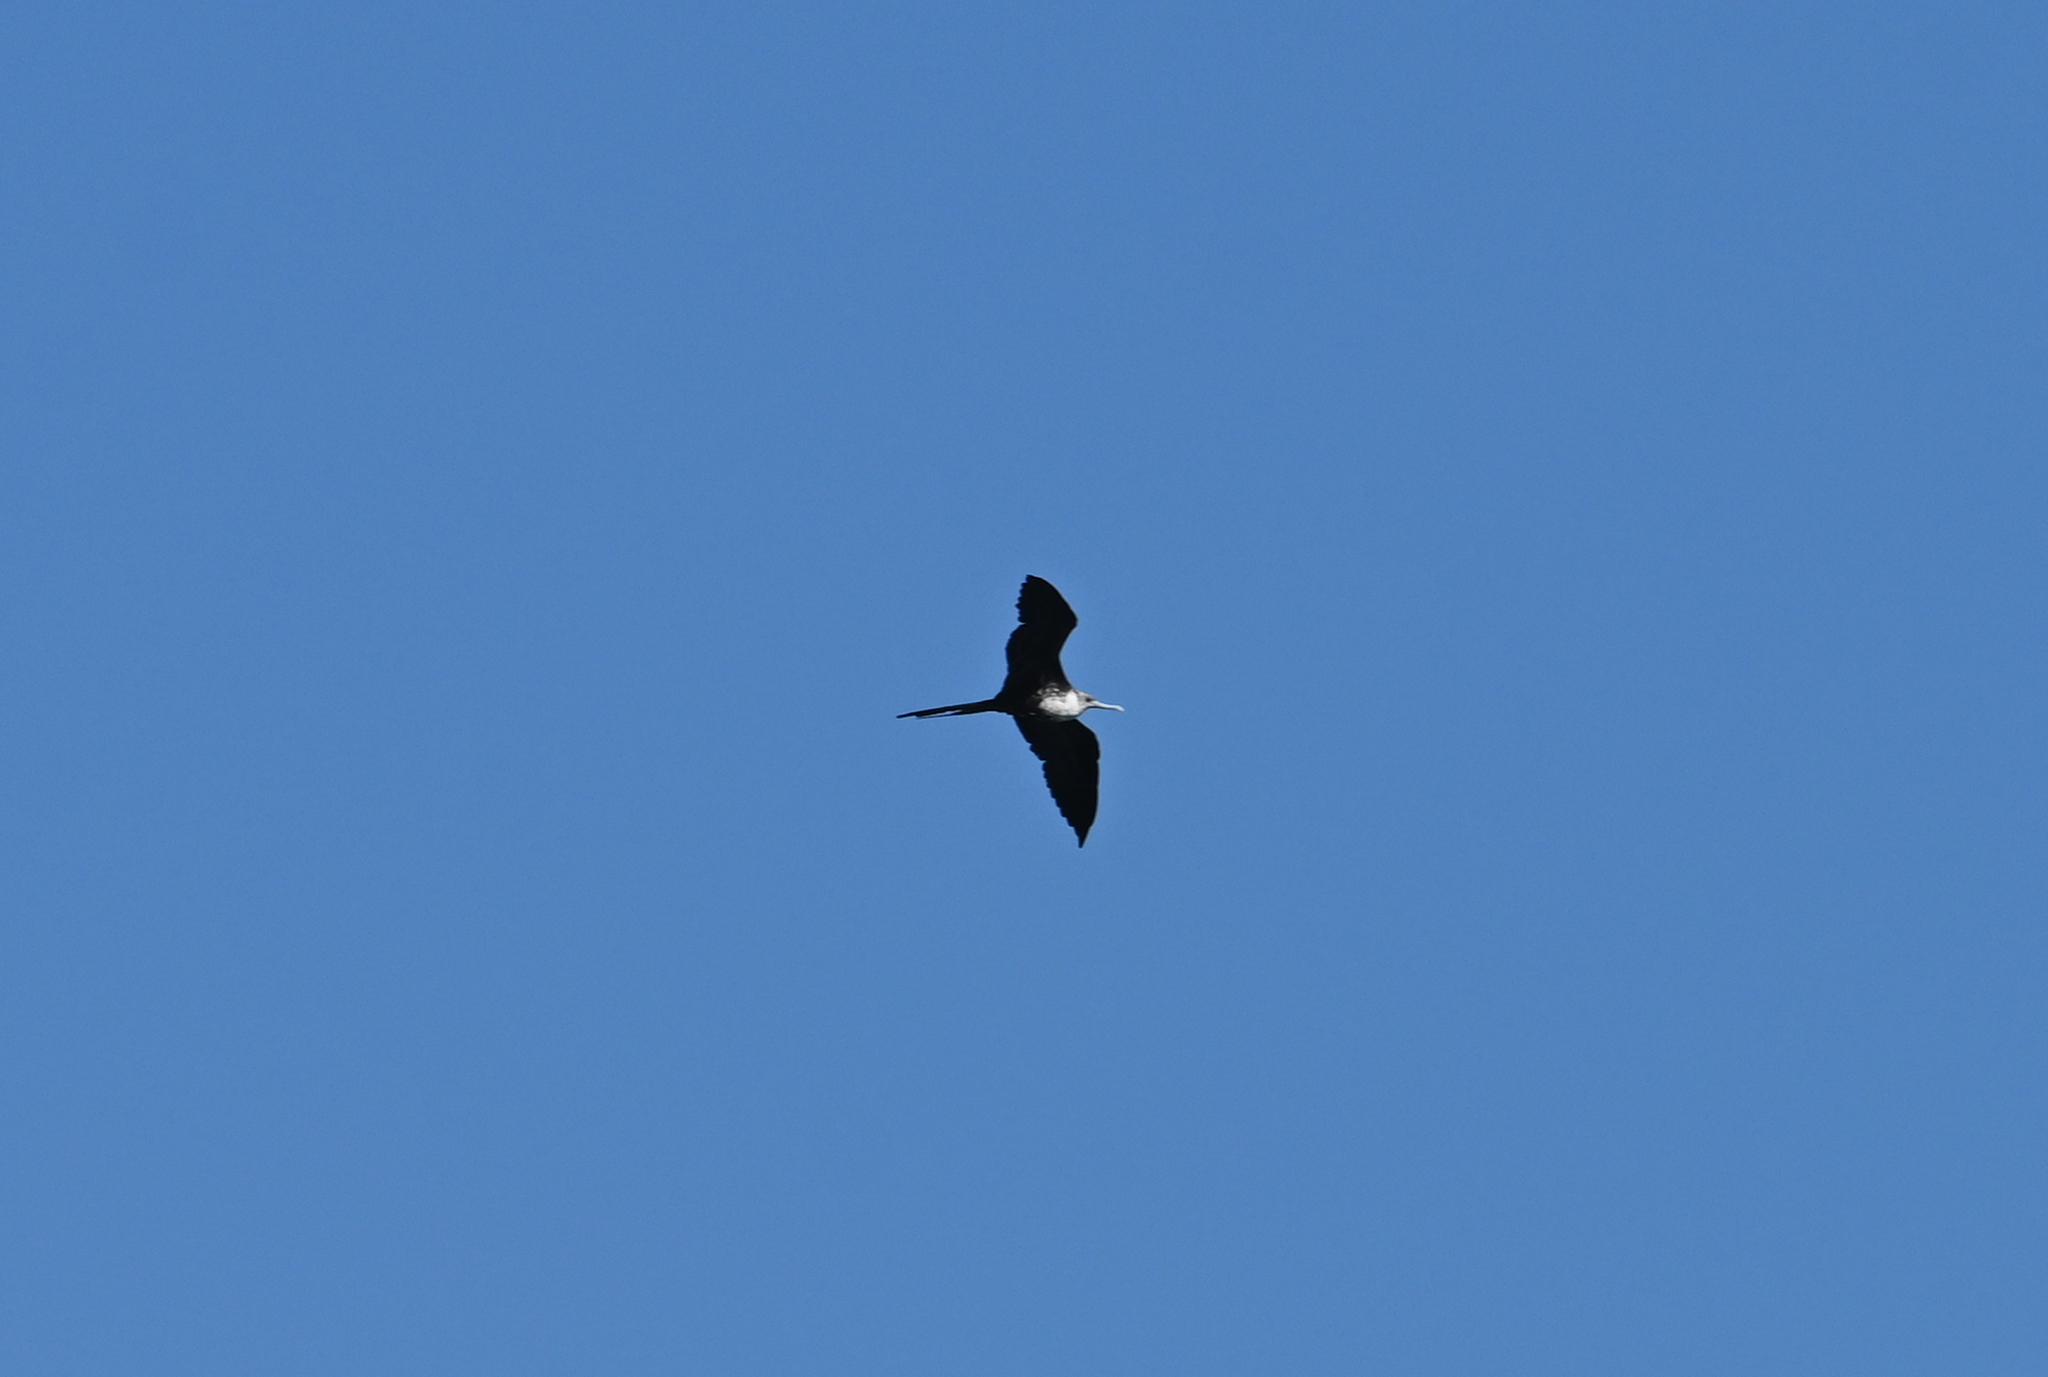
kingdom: Animalia
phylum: Chordata
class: Aves
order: Suliformes
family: Fregatidae
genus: Fregata
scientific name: Fregata magnificens
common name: Magnificent frigatebird
